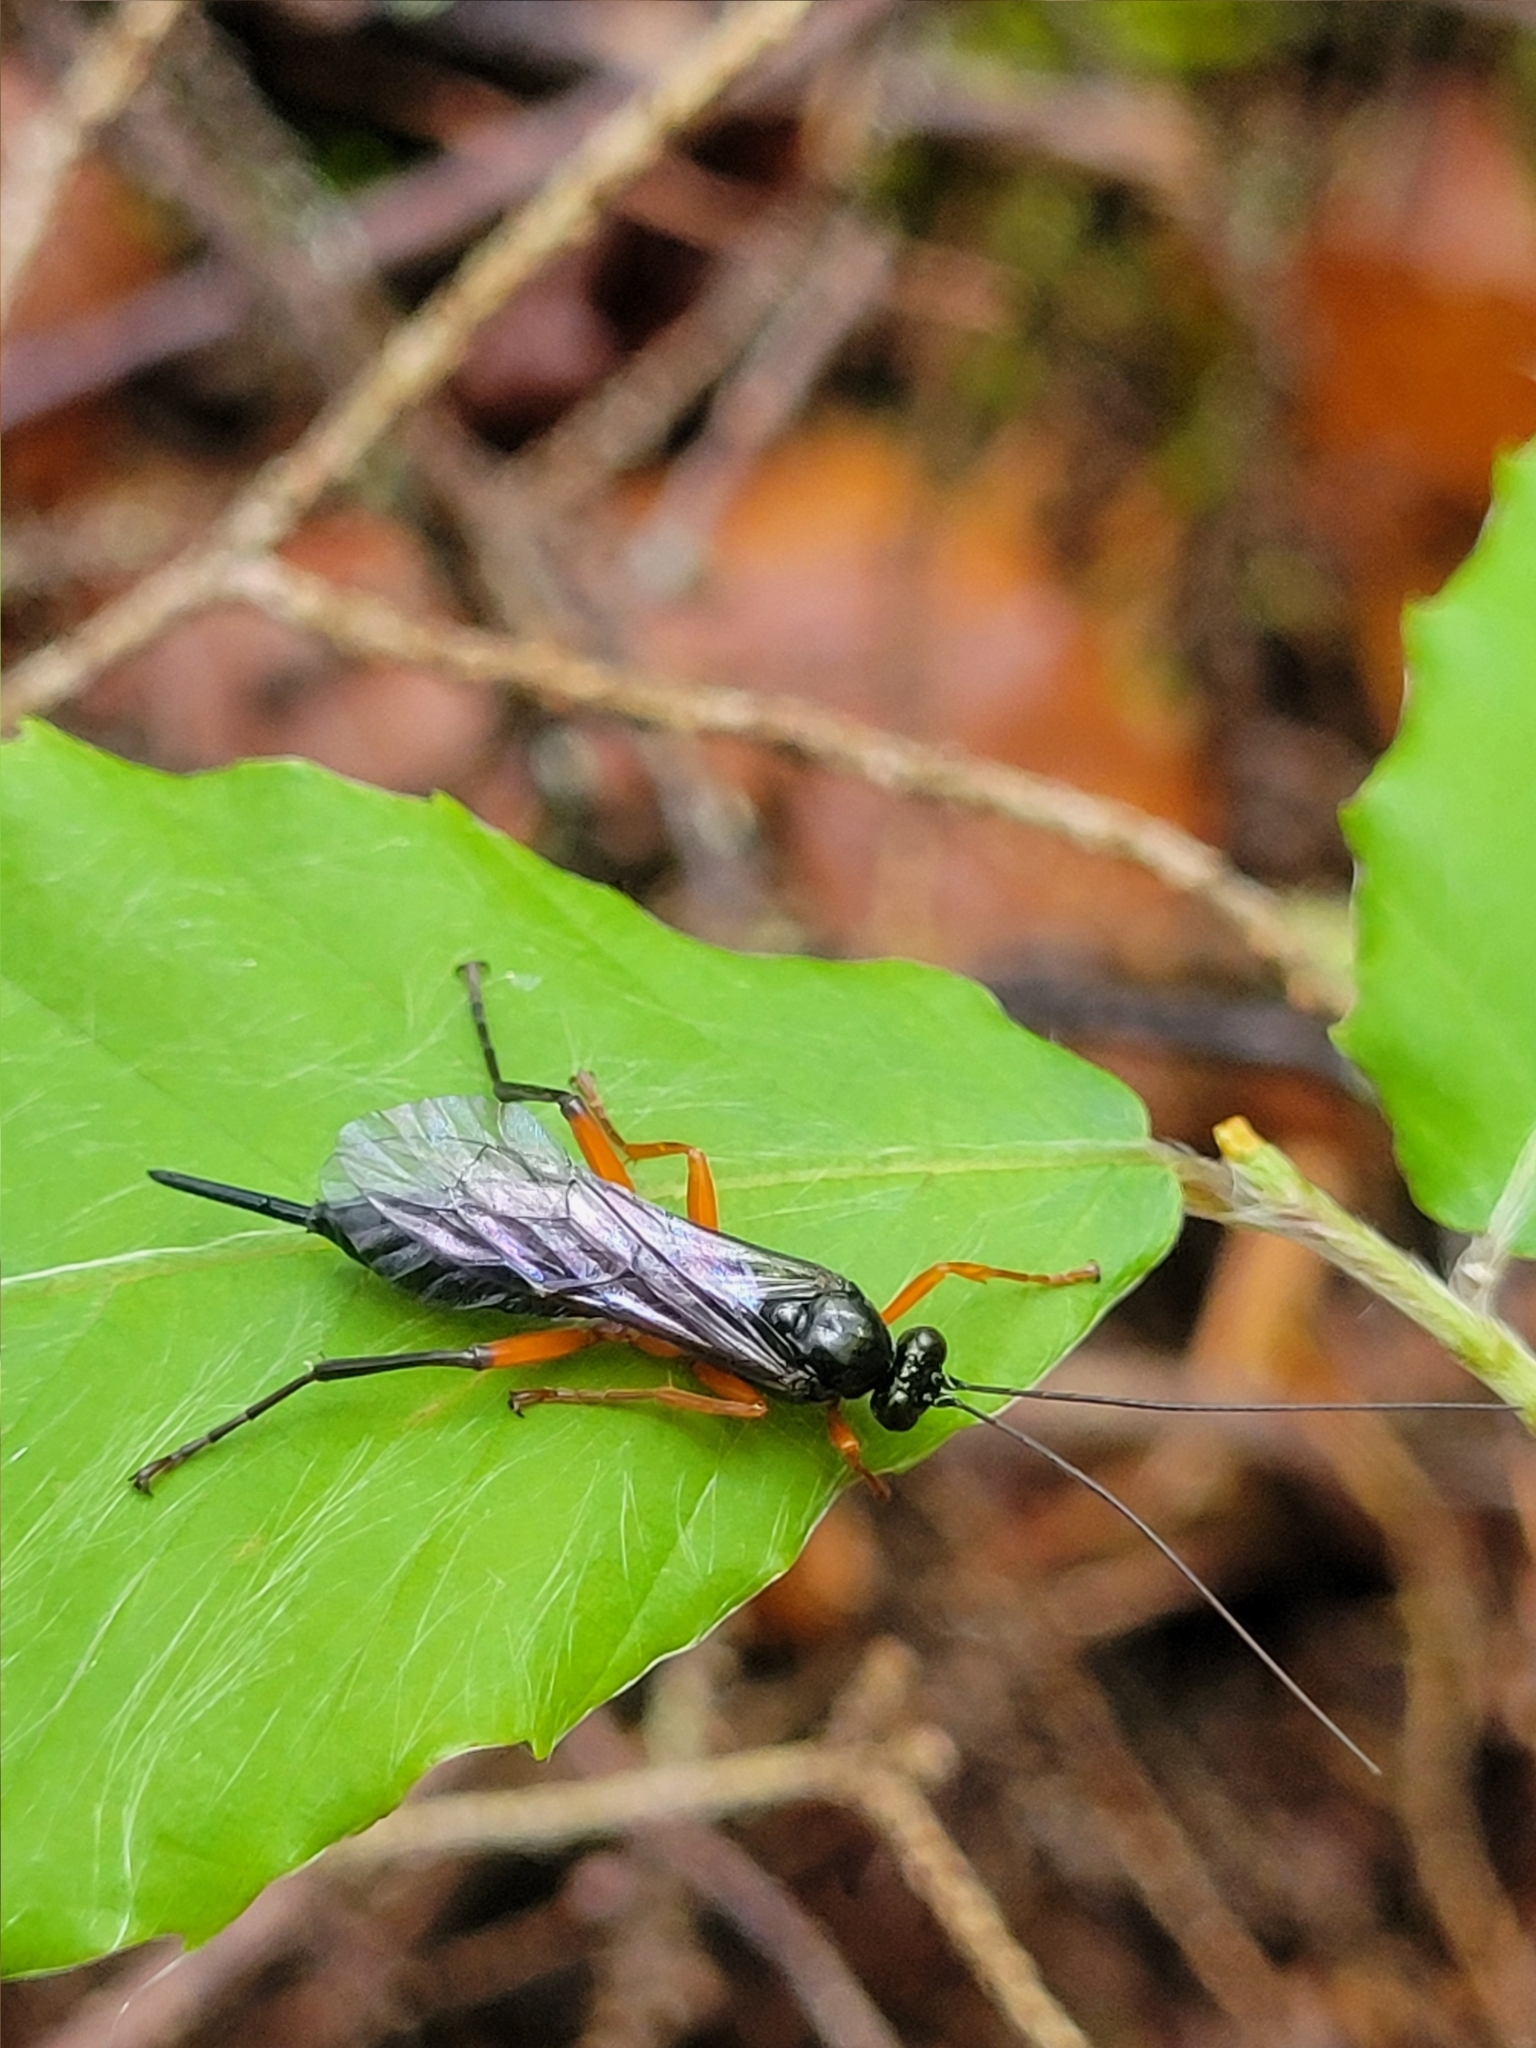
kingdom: Animalia
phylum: Arthropoda
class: Insecta
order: Hymenoptera
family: Ichneumonidae
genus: Pimpla
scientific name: Pimpla pedalis
